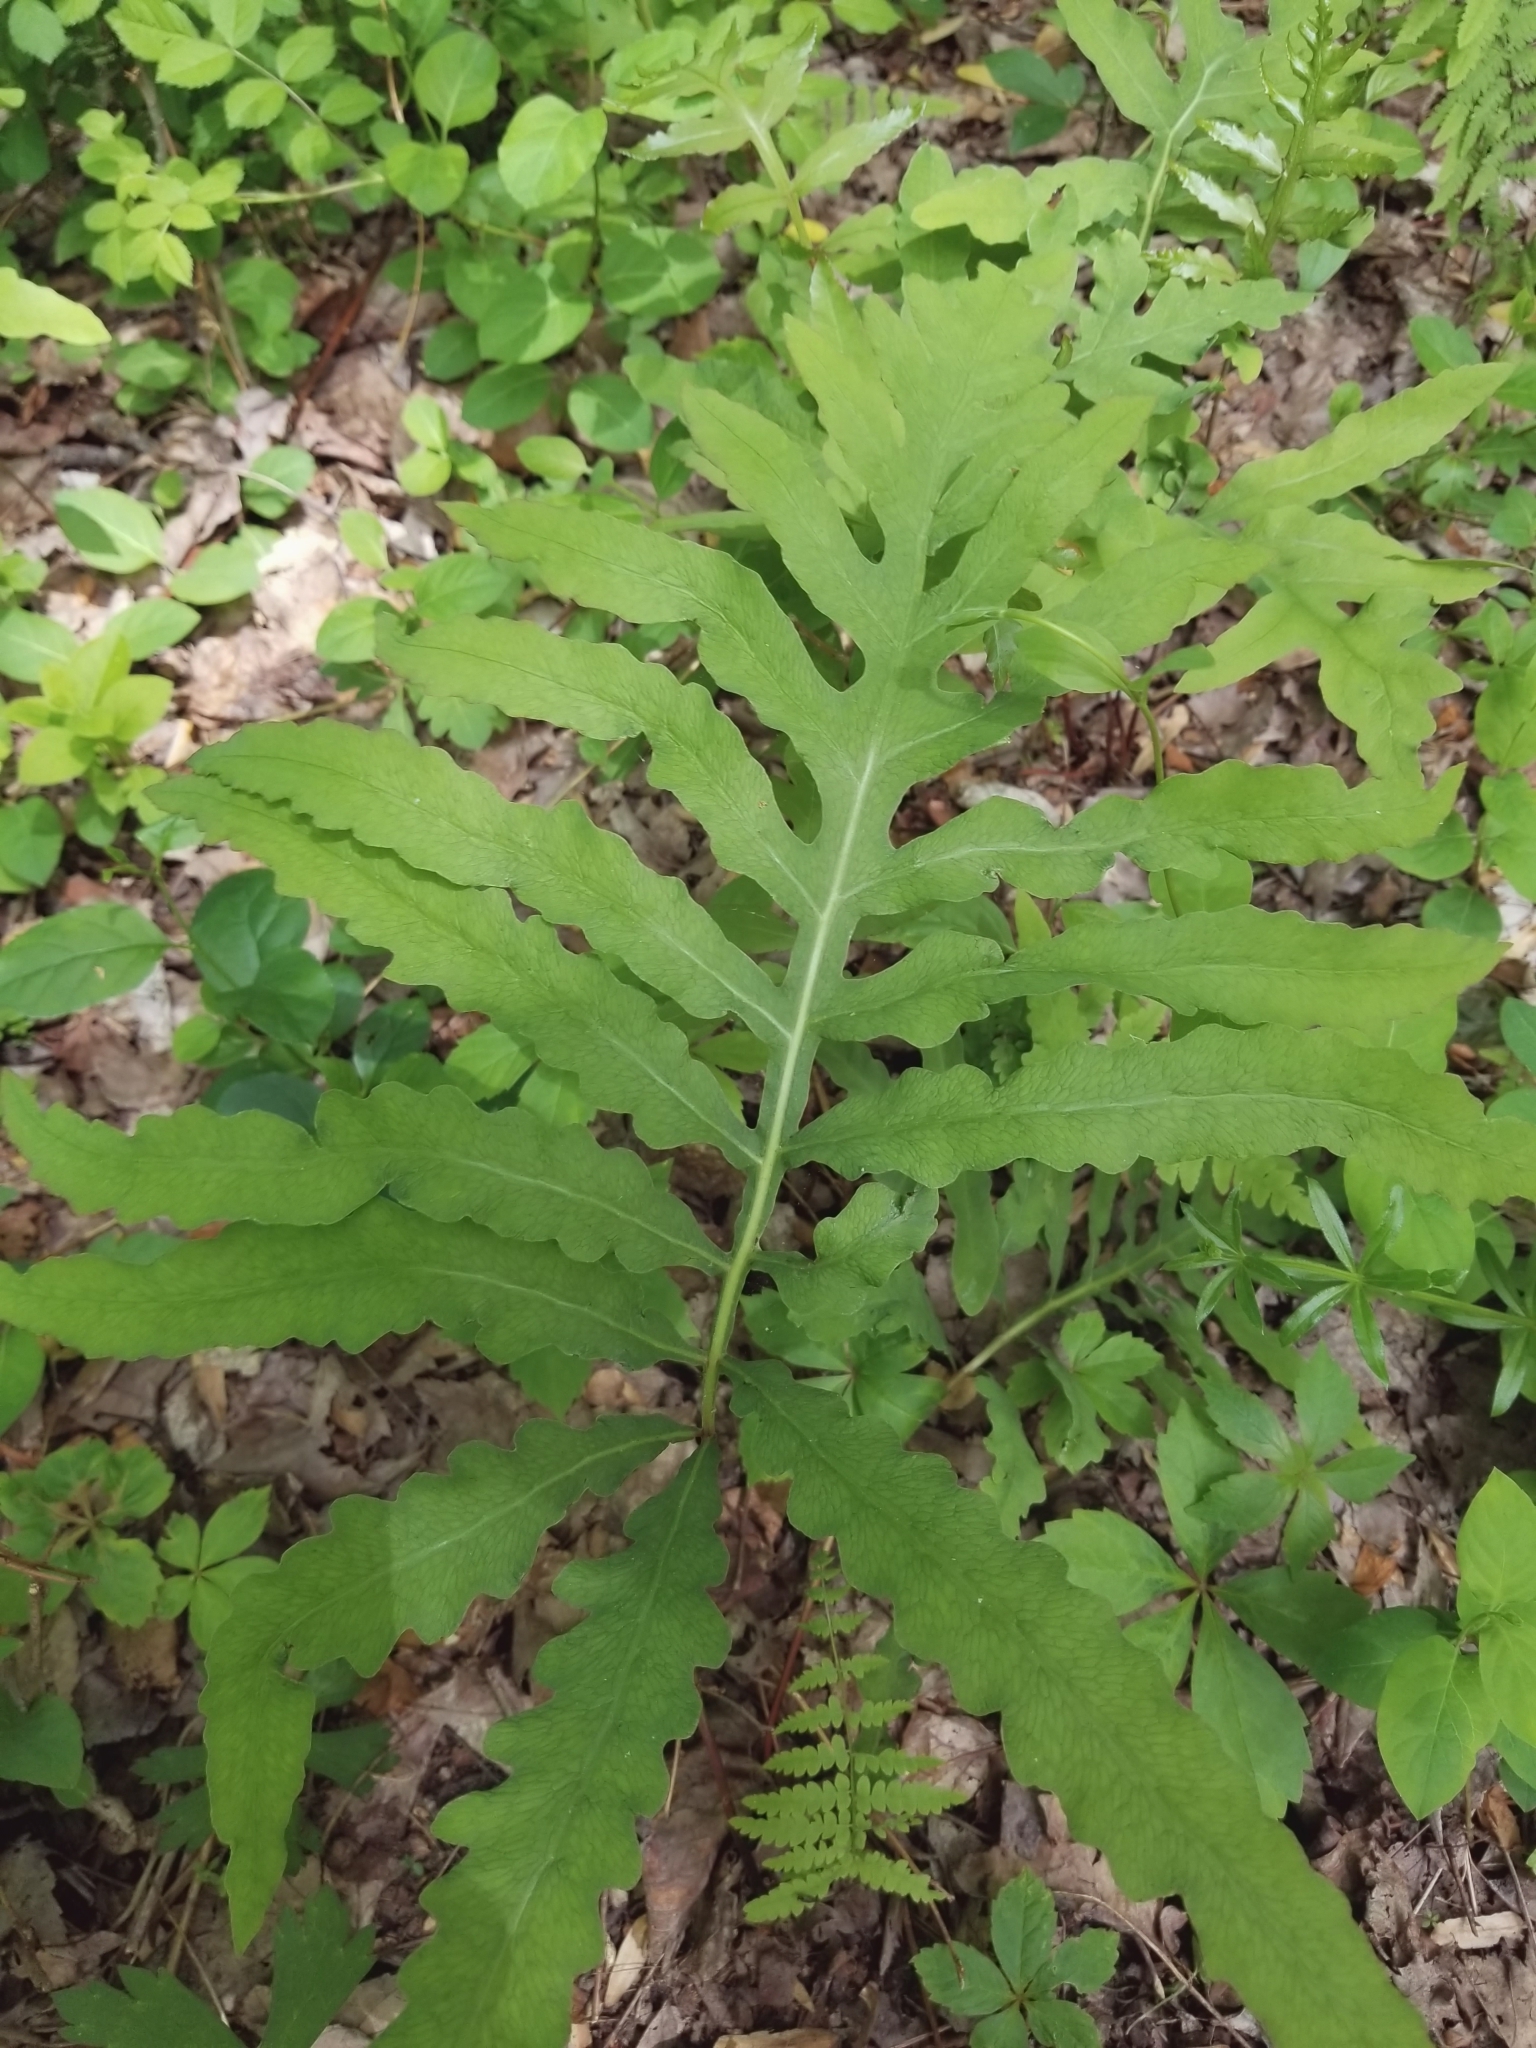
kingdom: Plantae
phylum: Tracheophyta
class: Polypodiopsida
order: Polypodiales
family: Onocleaceae
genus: Onoclea
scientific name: Onoclea sensibilis
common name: Sensitive fern
